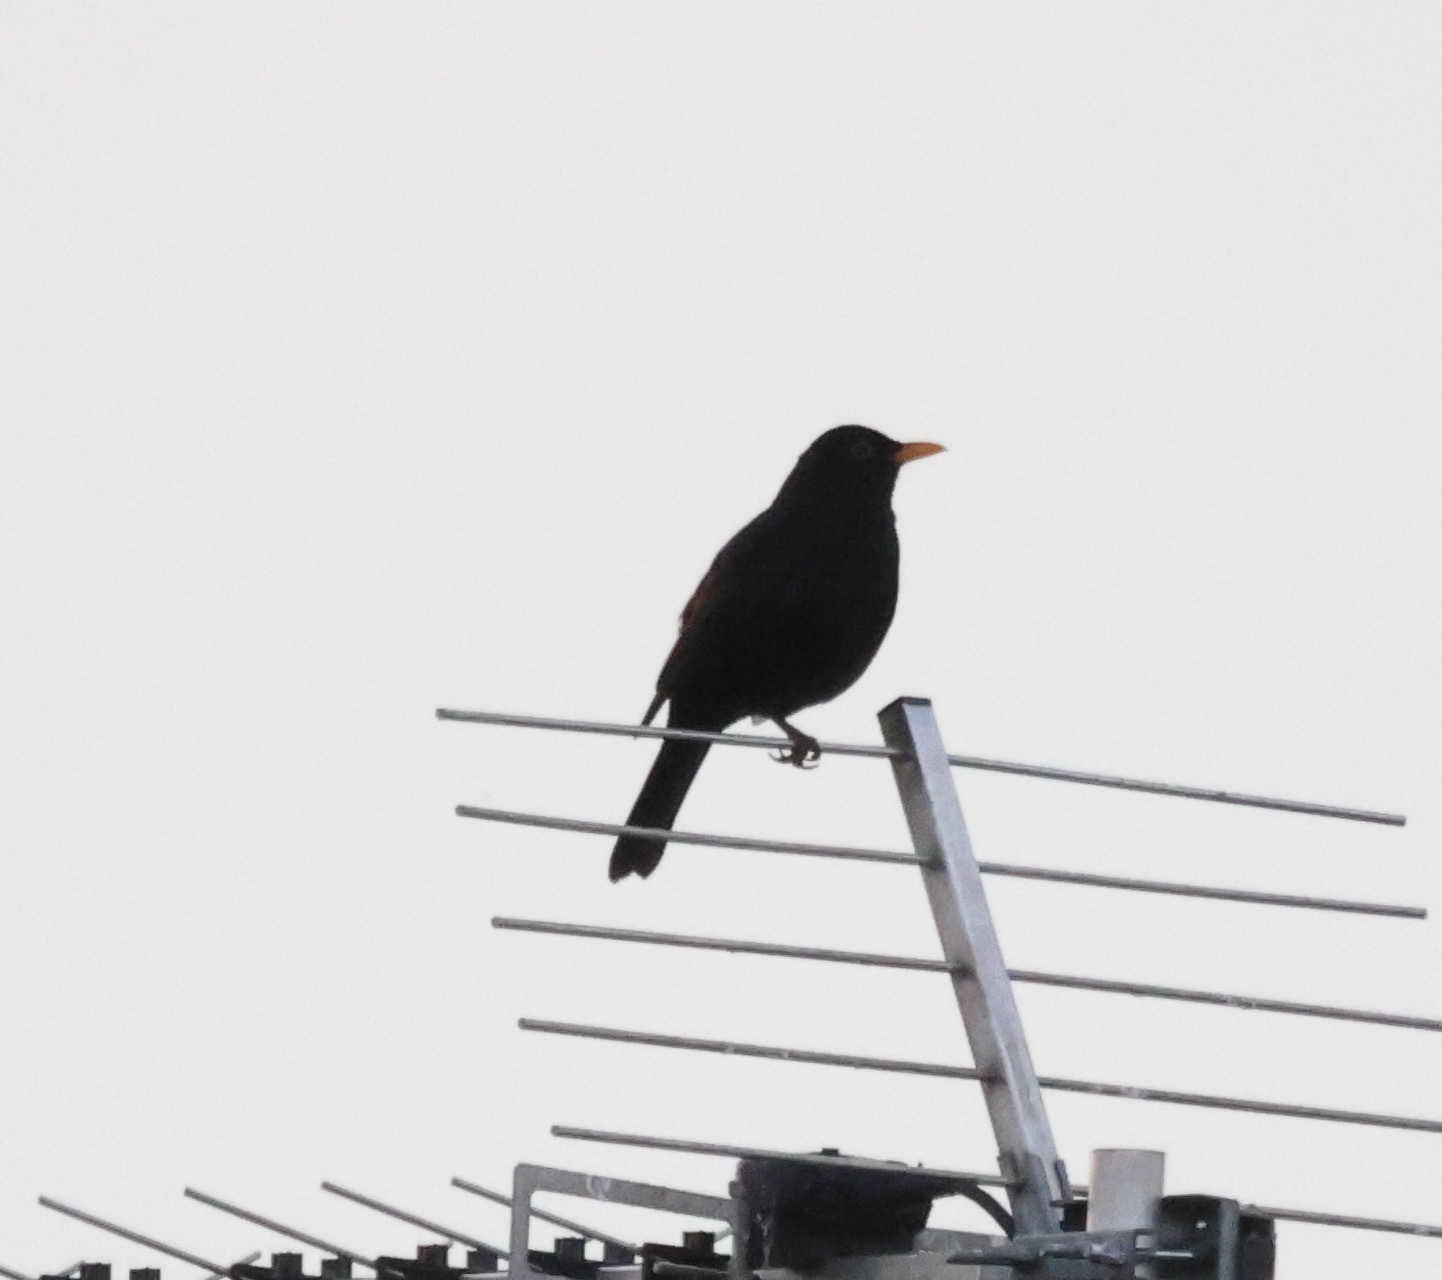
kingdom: Animalia
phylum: Chordata
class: Aves
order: Passeriformes
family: Turdidae
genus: Turdus
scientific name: Turdus merula
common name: Common blackbird
